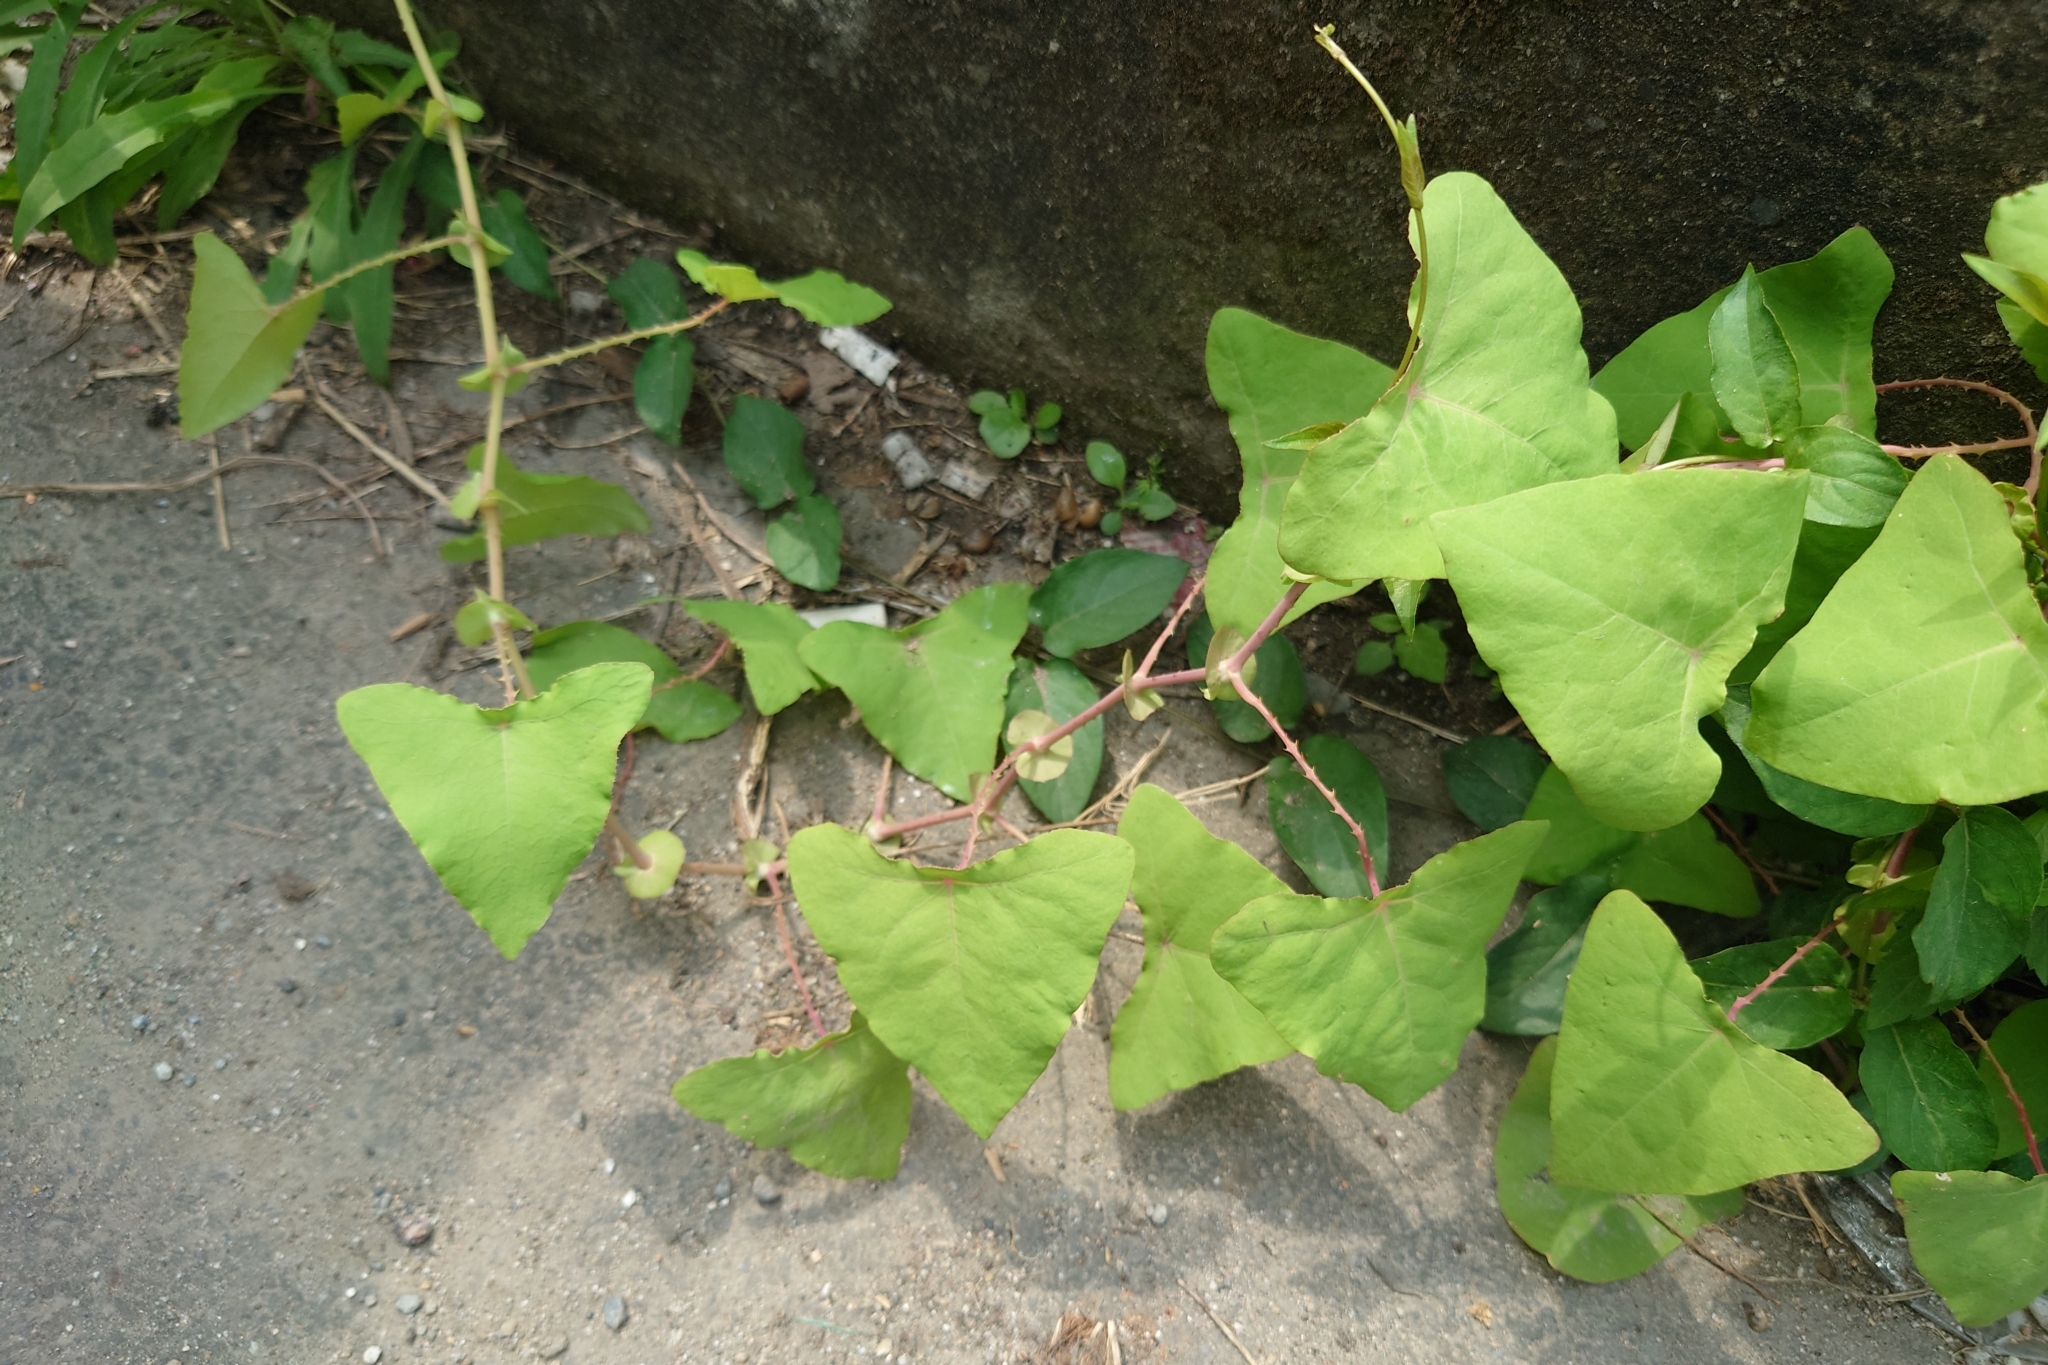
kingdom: Plantae
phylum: Tracheophyta
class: Magnoliopsida
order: Caryophyllales
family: Polygonaceae
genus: Persicaria
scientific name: Persicaria perfoliata
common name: Asiatic tearthumb
